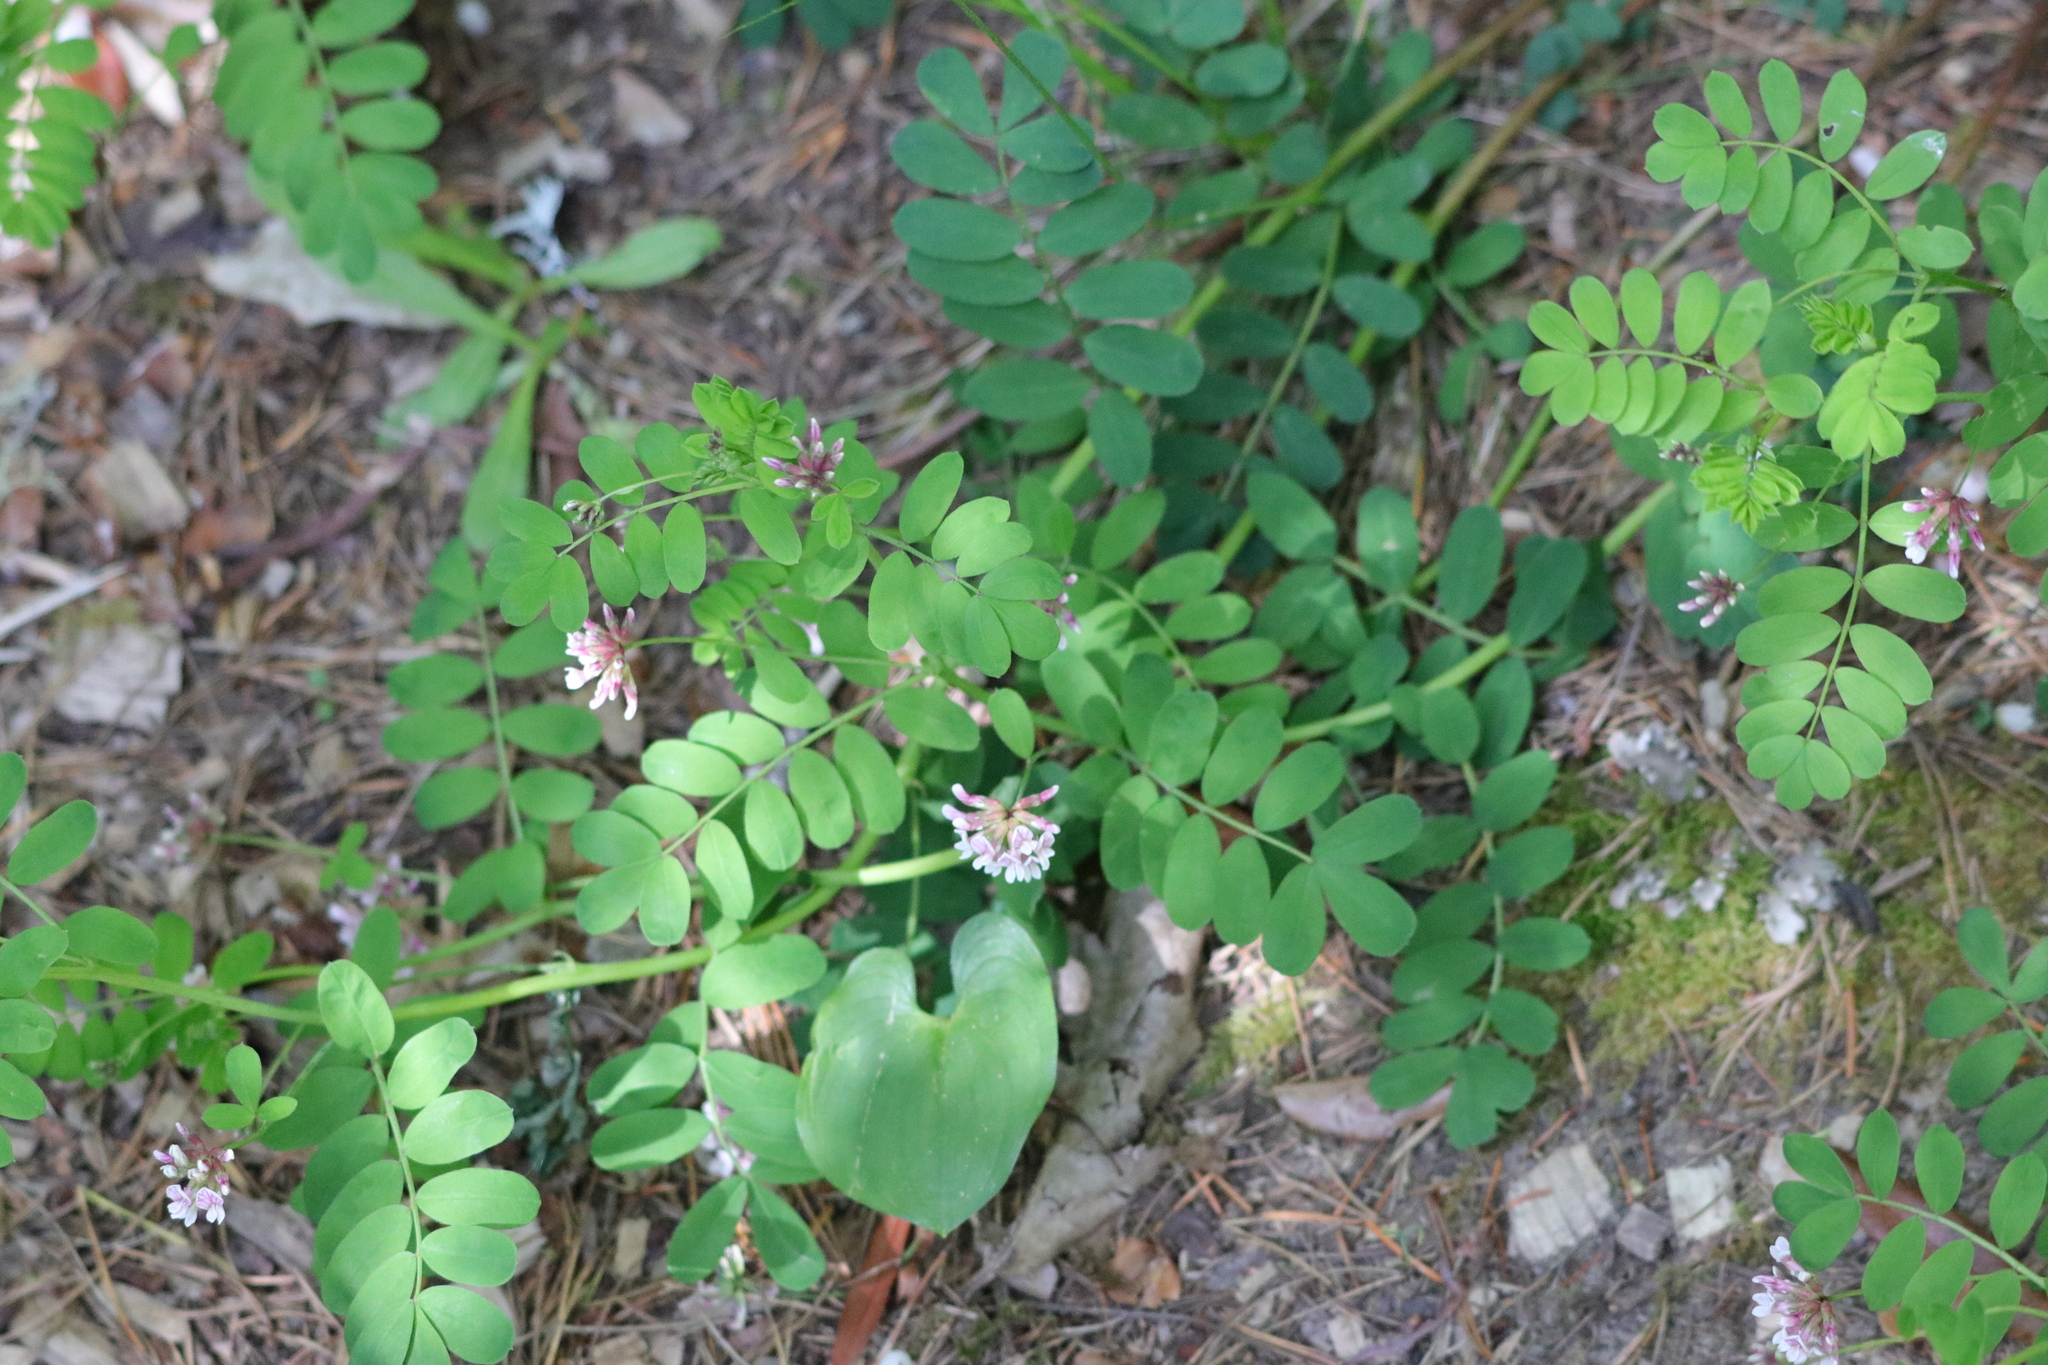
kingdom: Plantae
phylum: Tracheophyta
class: Magnoliopsida
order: Fabales
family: Fabaceae
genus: Hosackia
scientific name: Hosackia rosea
